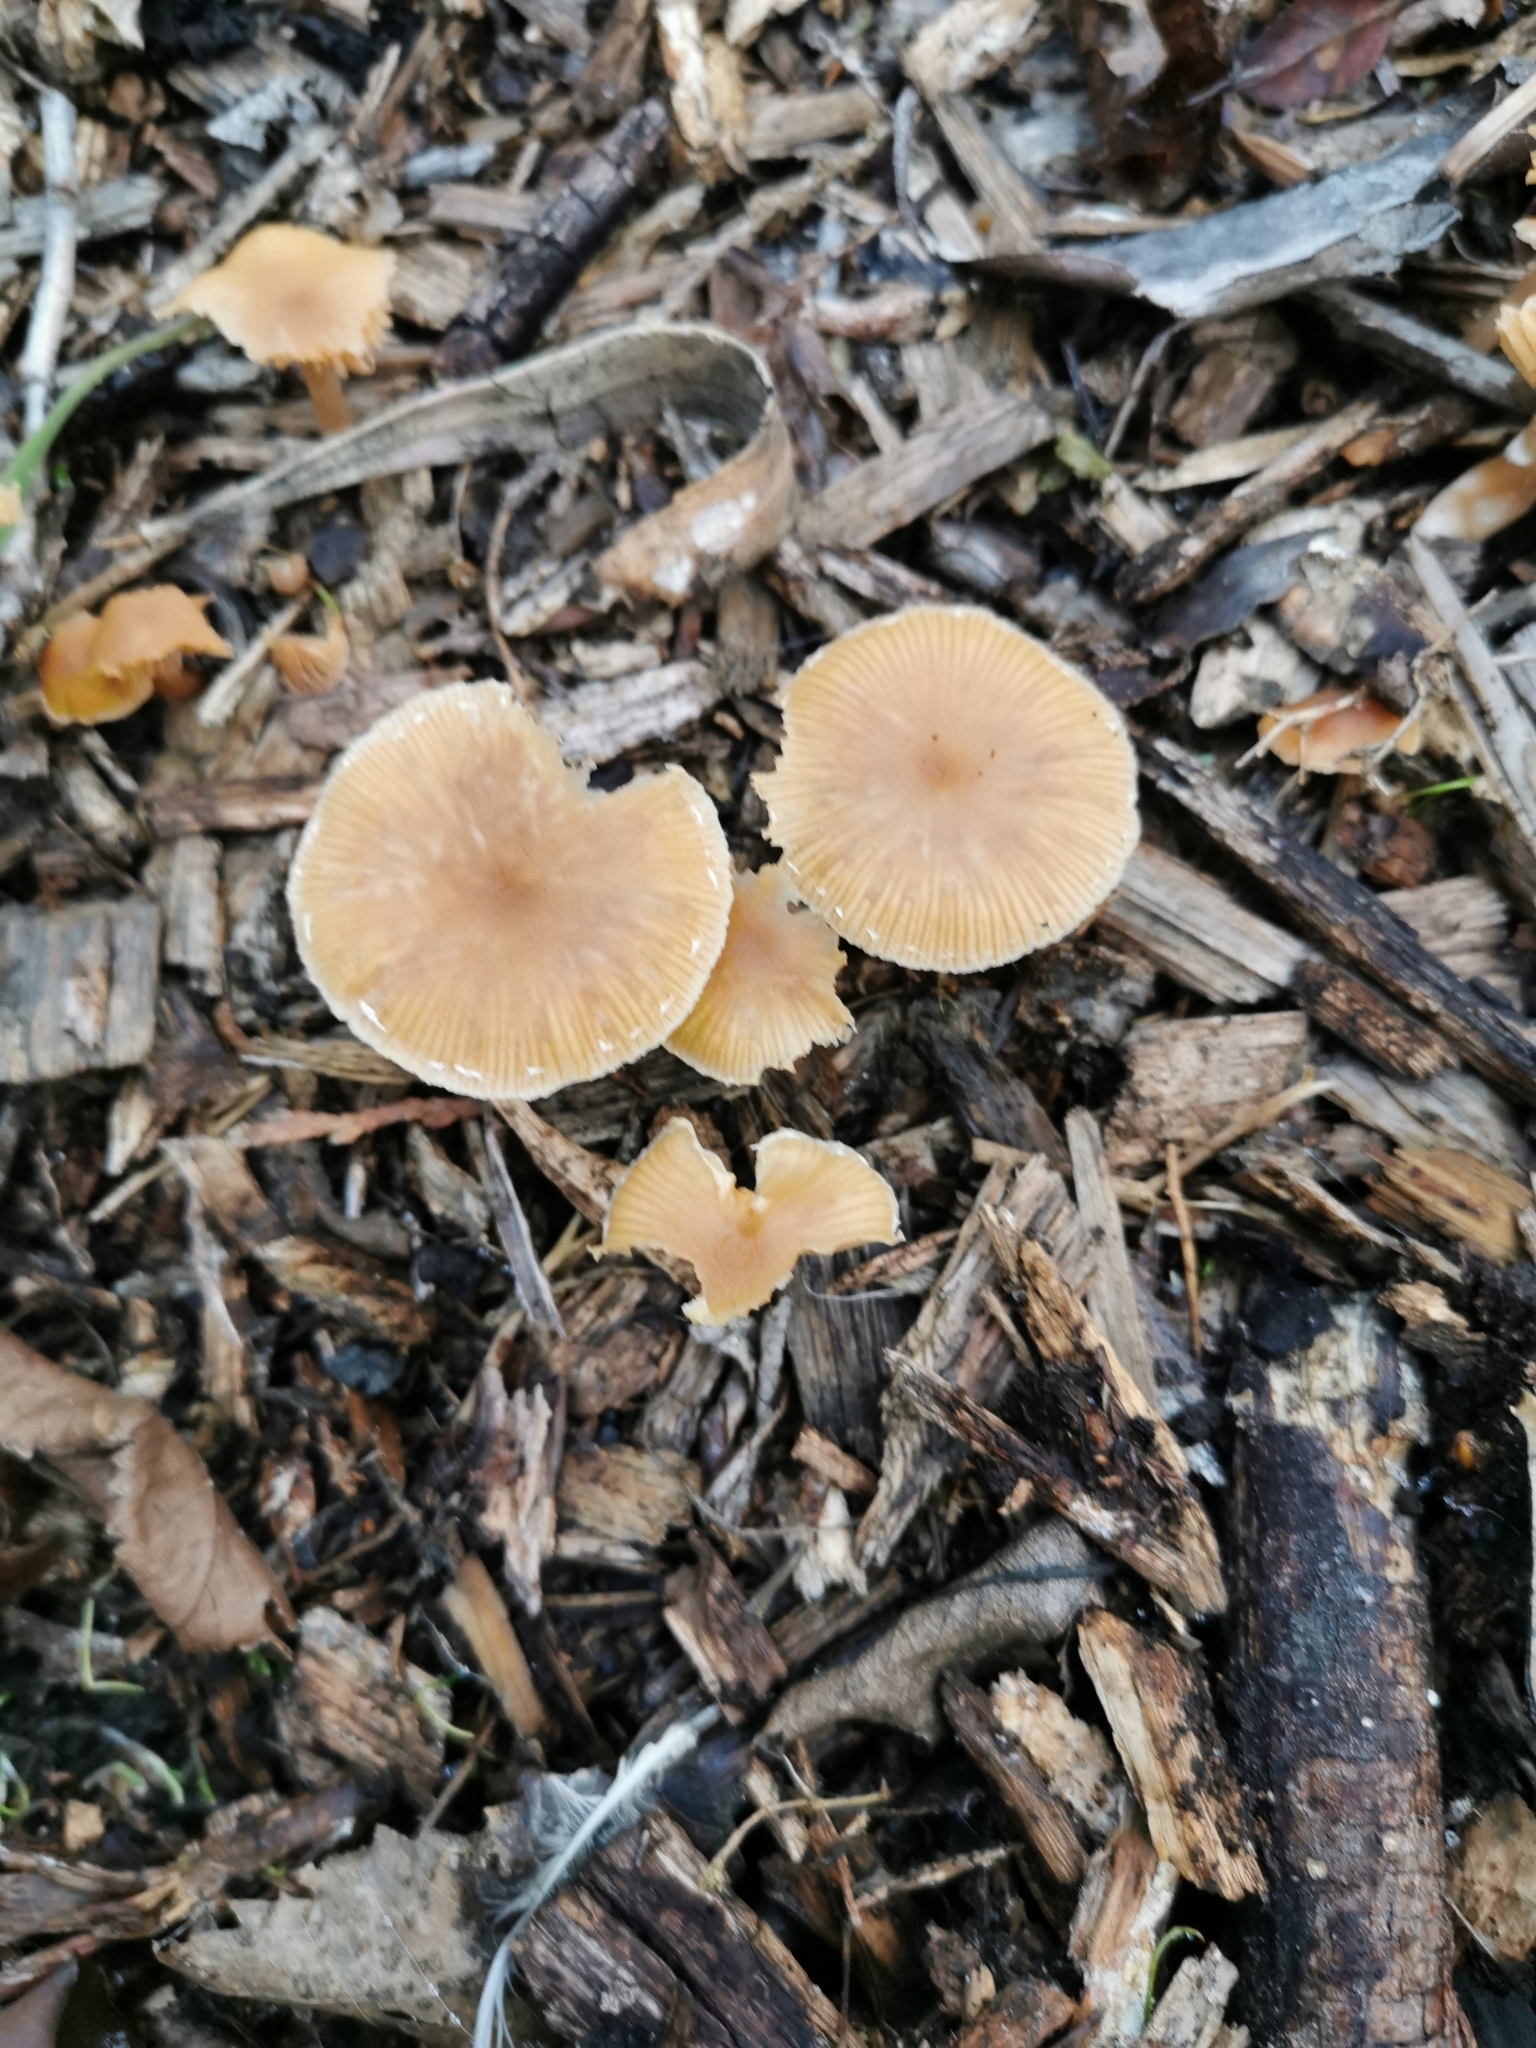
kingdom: Fungi
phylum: Basidiomycota
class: Agaricomycetes
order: Agaricales
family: Tubariaceae
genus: Tubaria
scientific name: Tubaria furfuracea
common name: Scurfy twiglet
